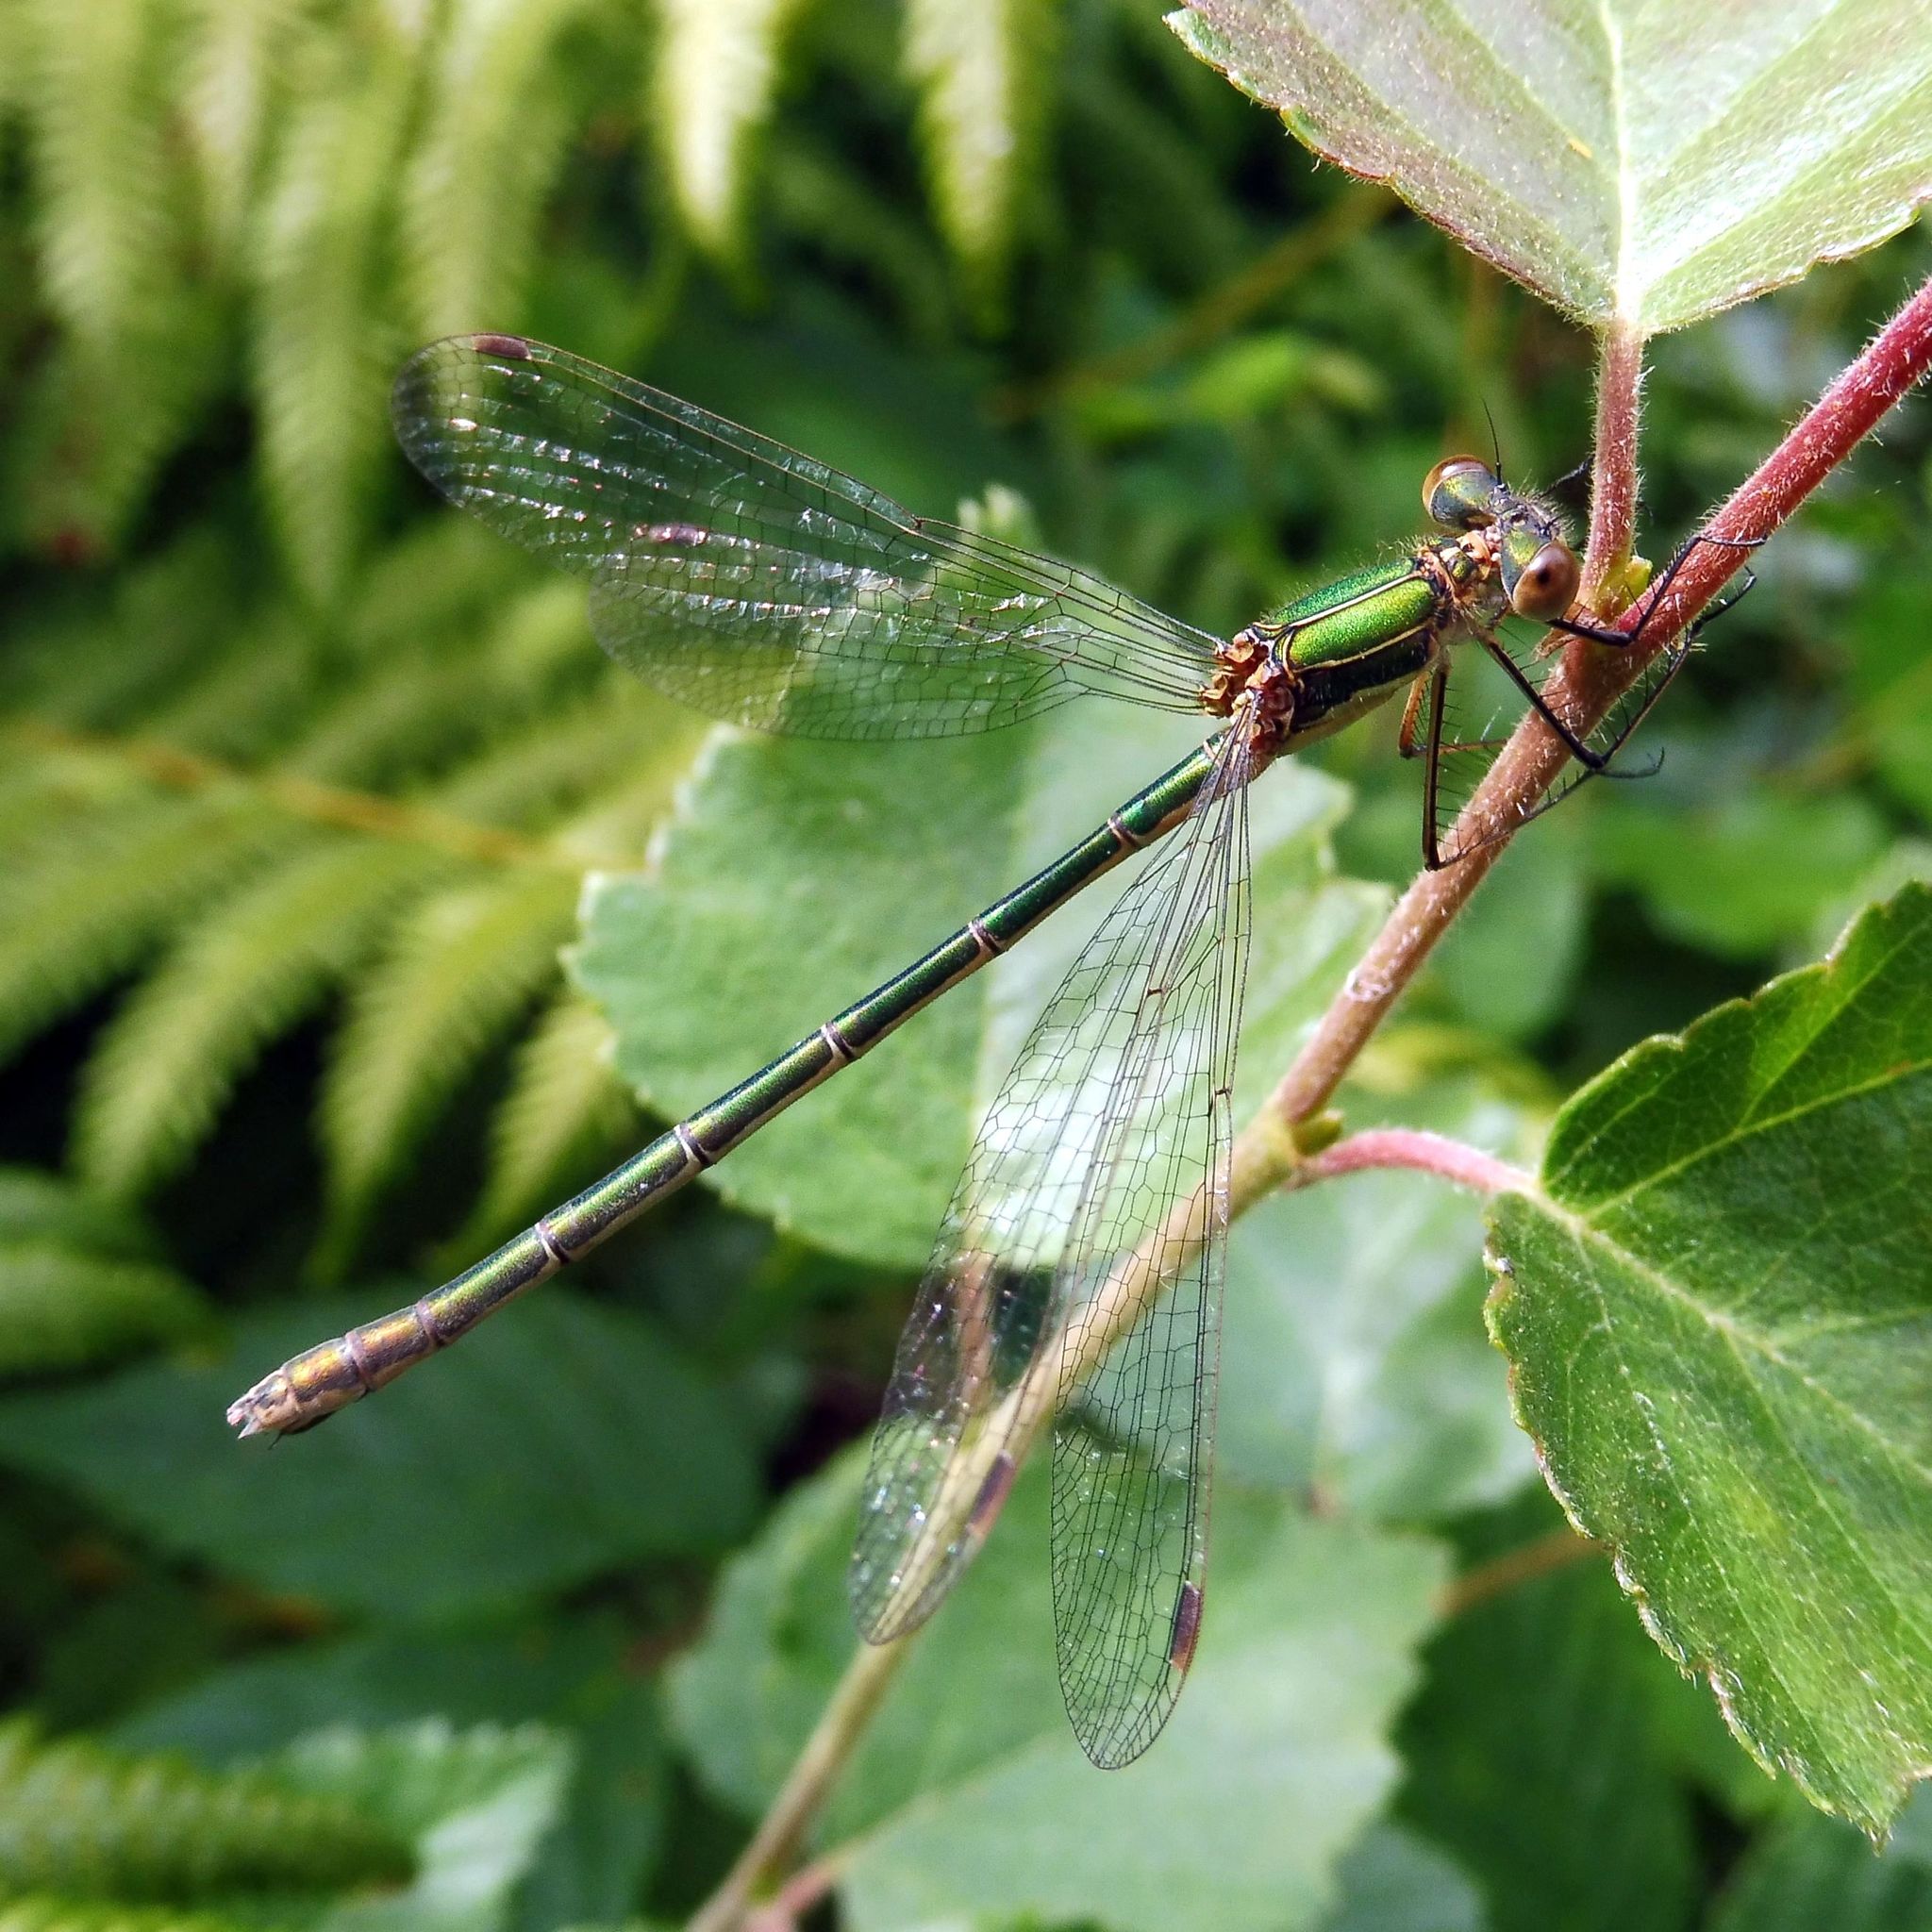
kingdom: Animalia
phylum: Arthropoda
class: Insecta
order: Odonata
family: Lestidae
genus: Lestes
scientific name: Lestes sponsa
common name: Common spreadwing
